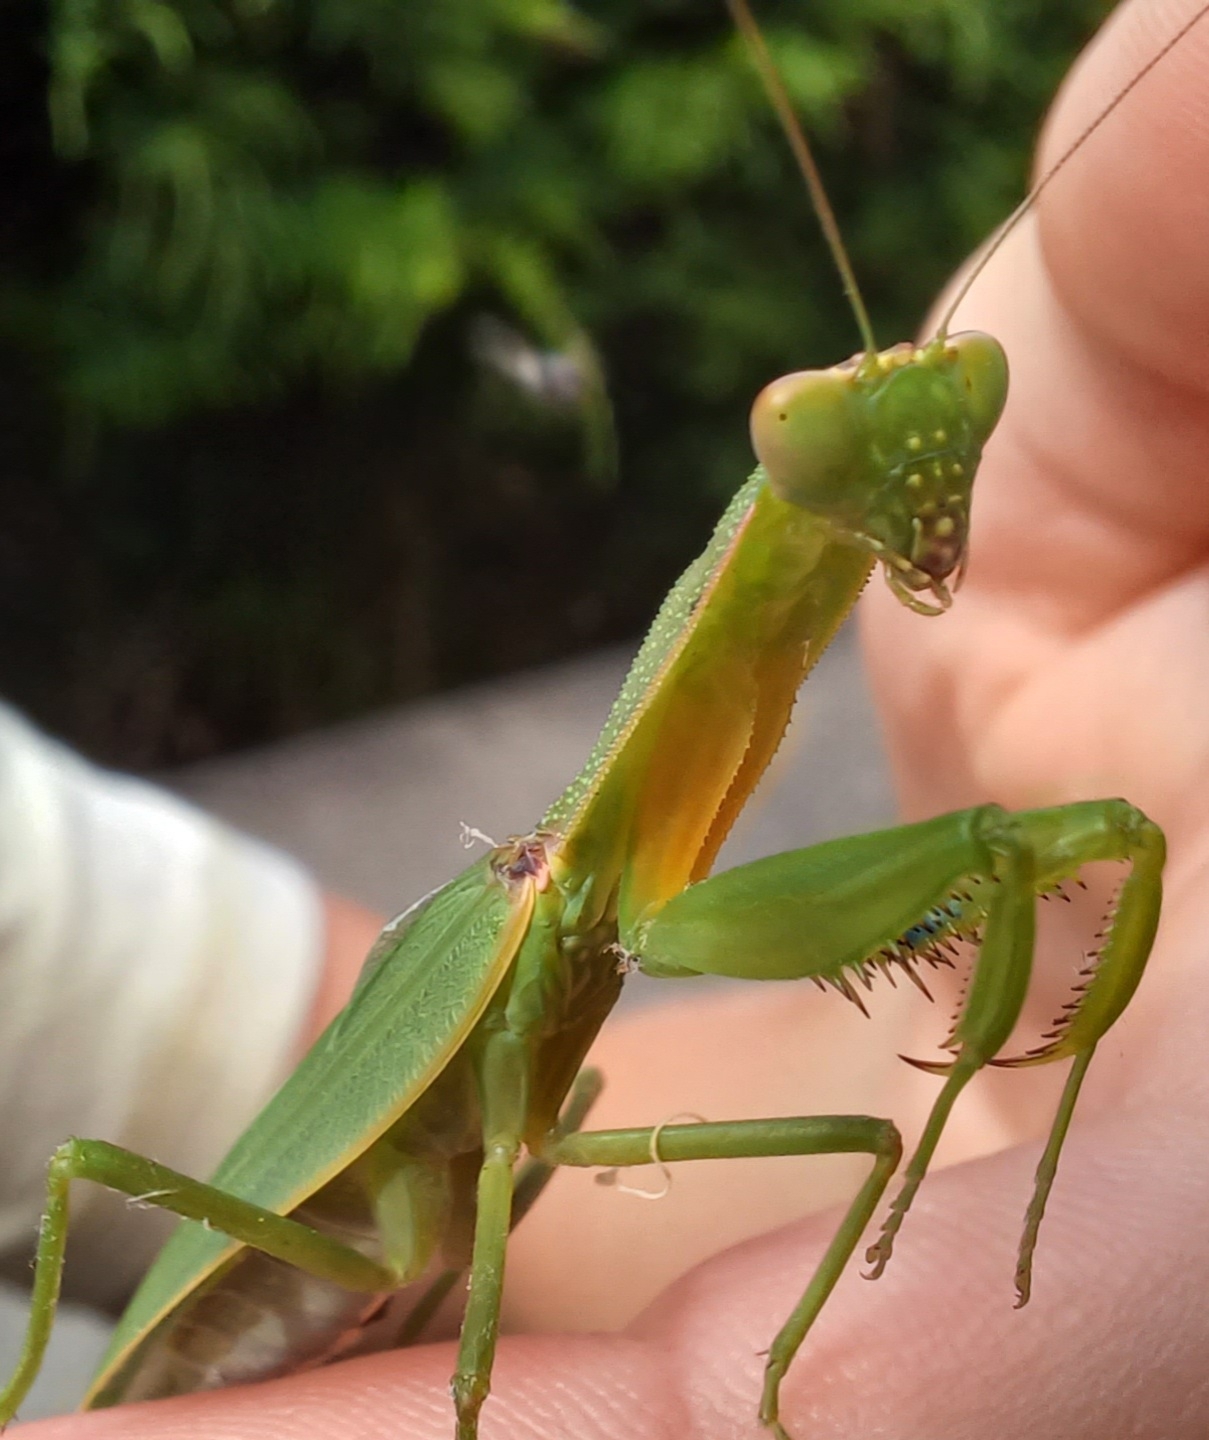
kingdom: Animalia
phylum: Arthropoda
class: Insecta
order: Mantodea
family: Mantidae
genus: Orthodera
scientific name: Orthodera ministralis
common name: Mantis
